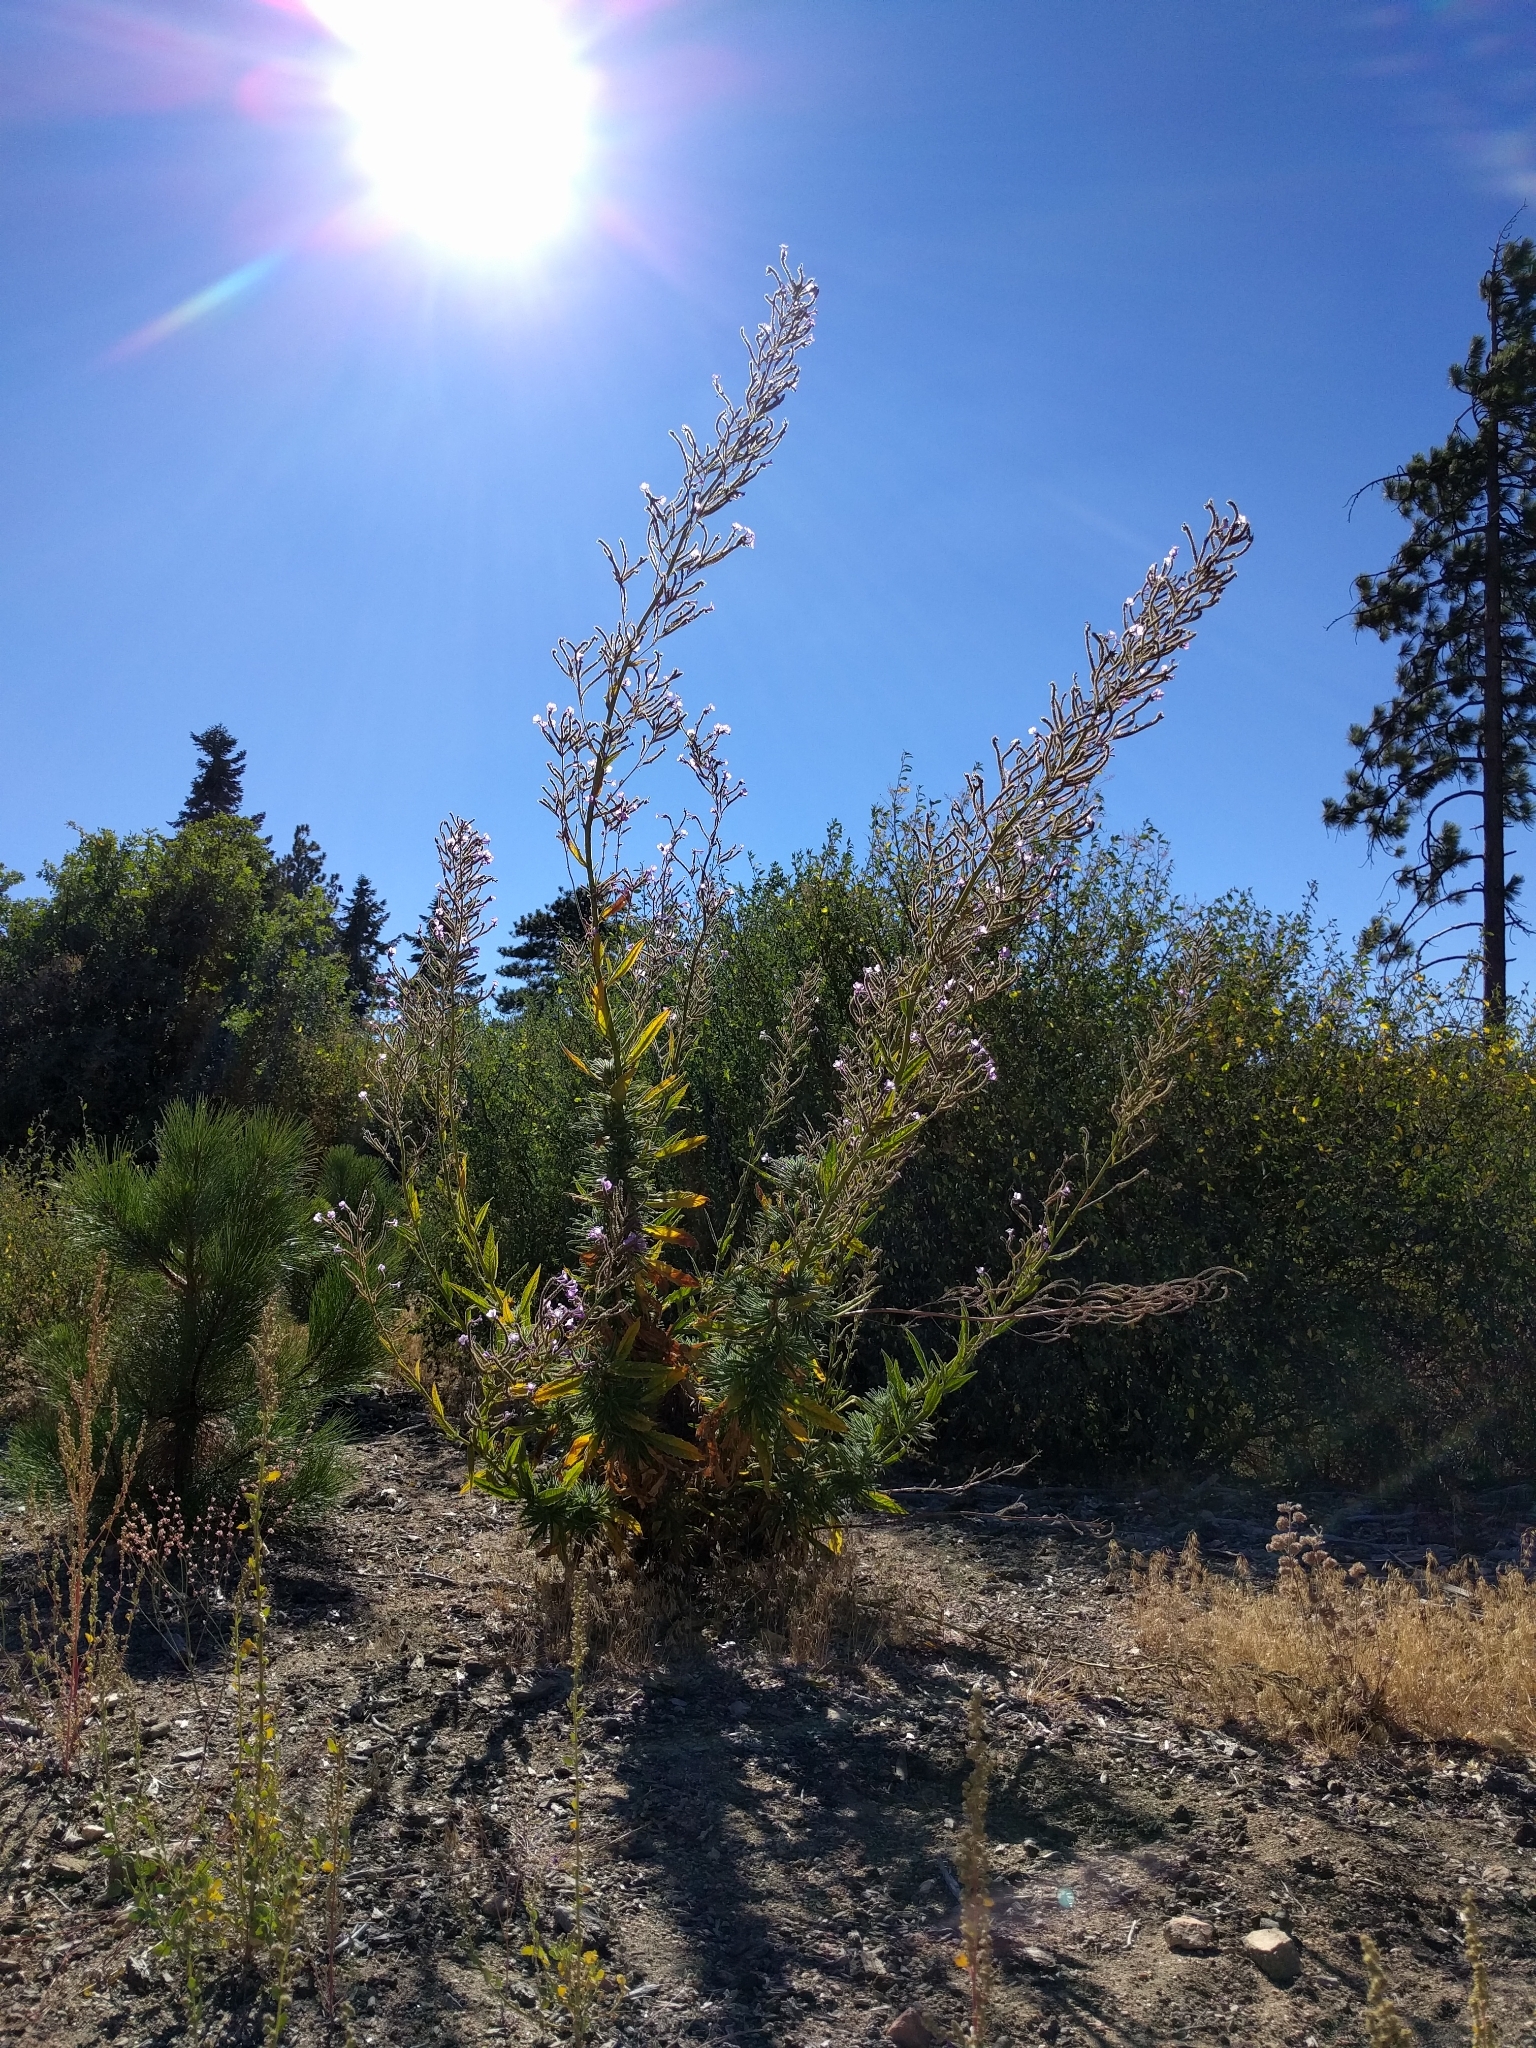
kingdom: Plantae
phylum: Tracheophyta
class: Magnoliopsida
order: Boraginales
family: Namaceae
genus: Turricula
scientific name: Turricula parryi
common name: Poodle-dog-bush
